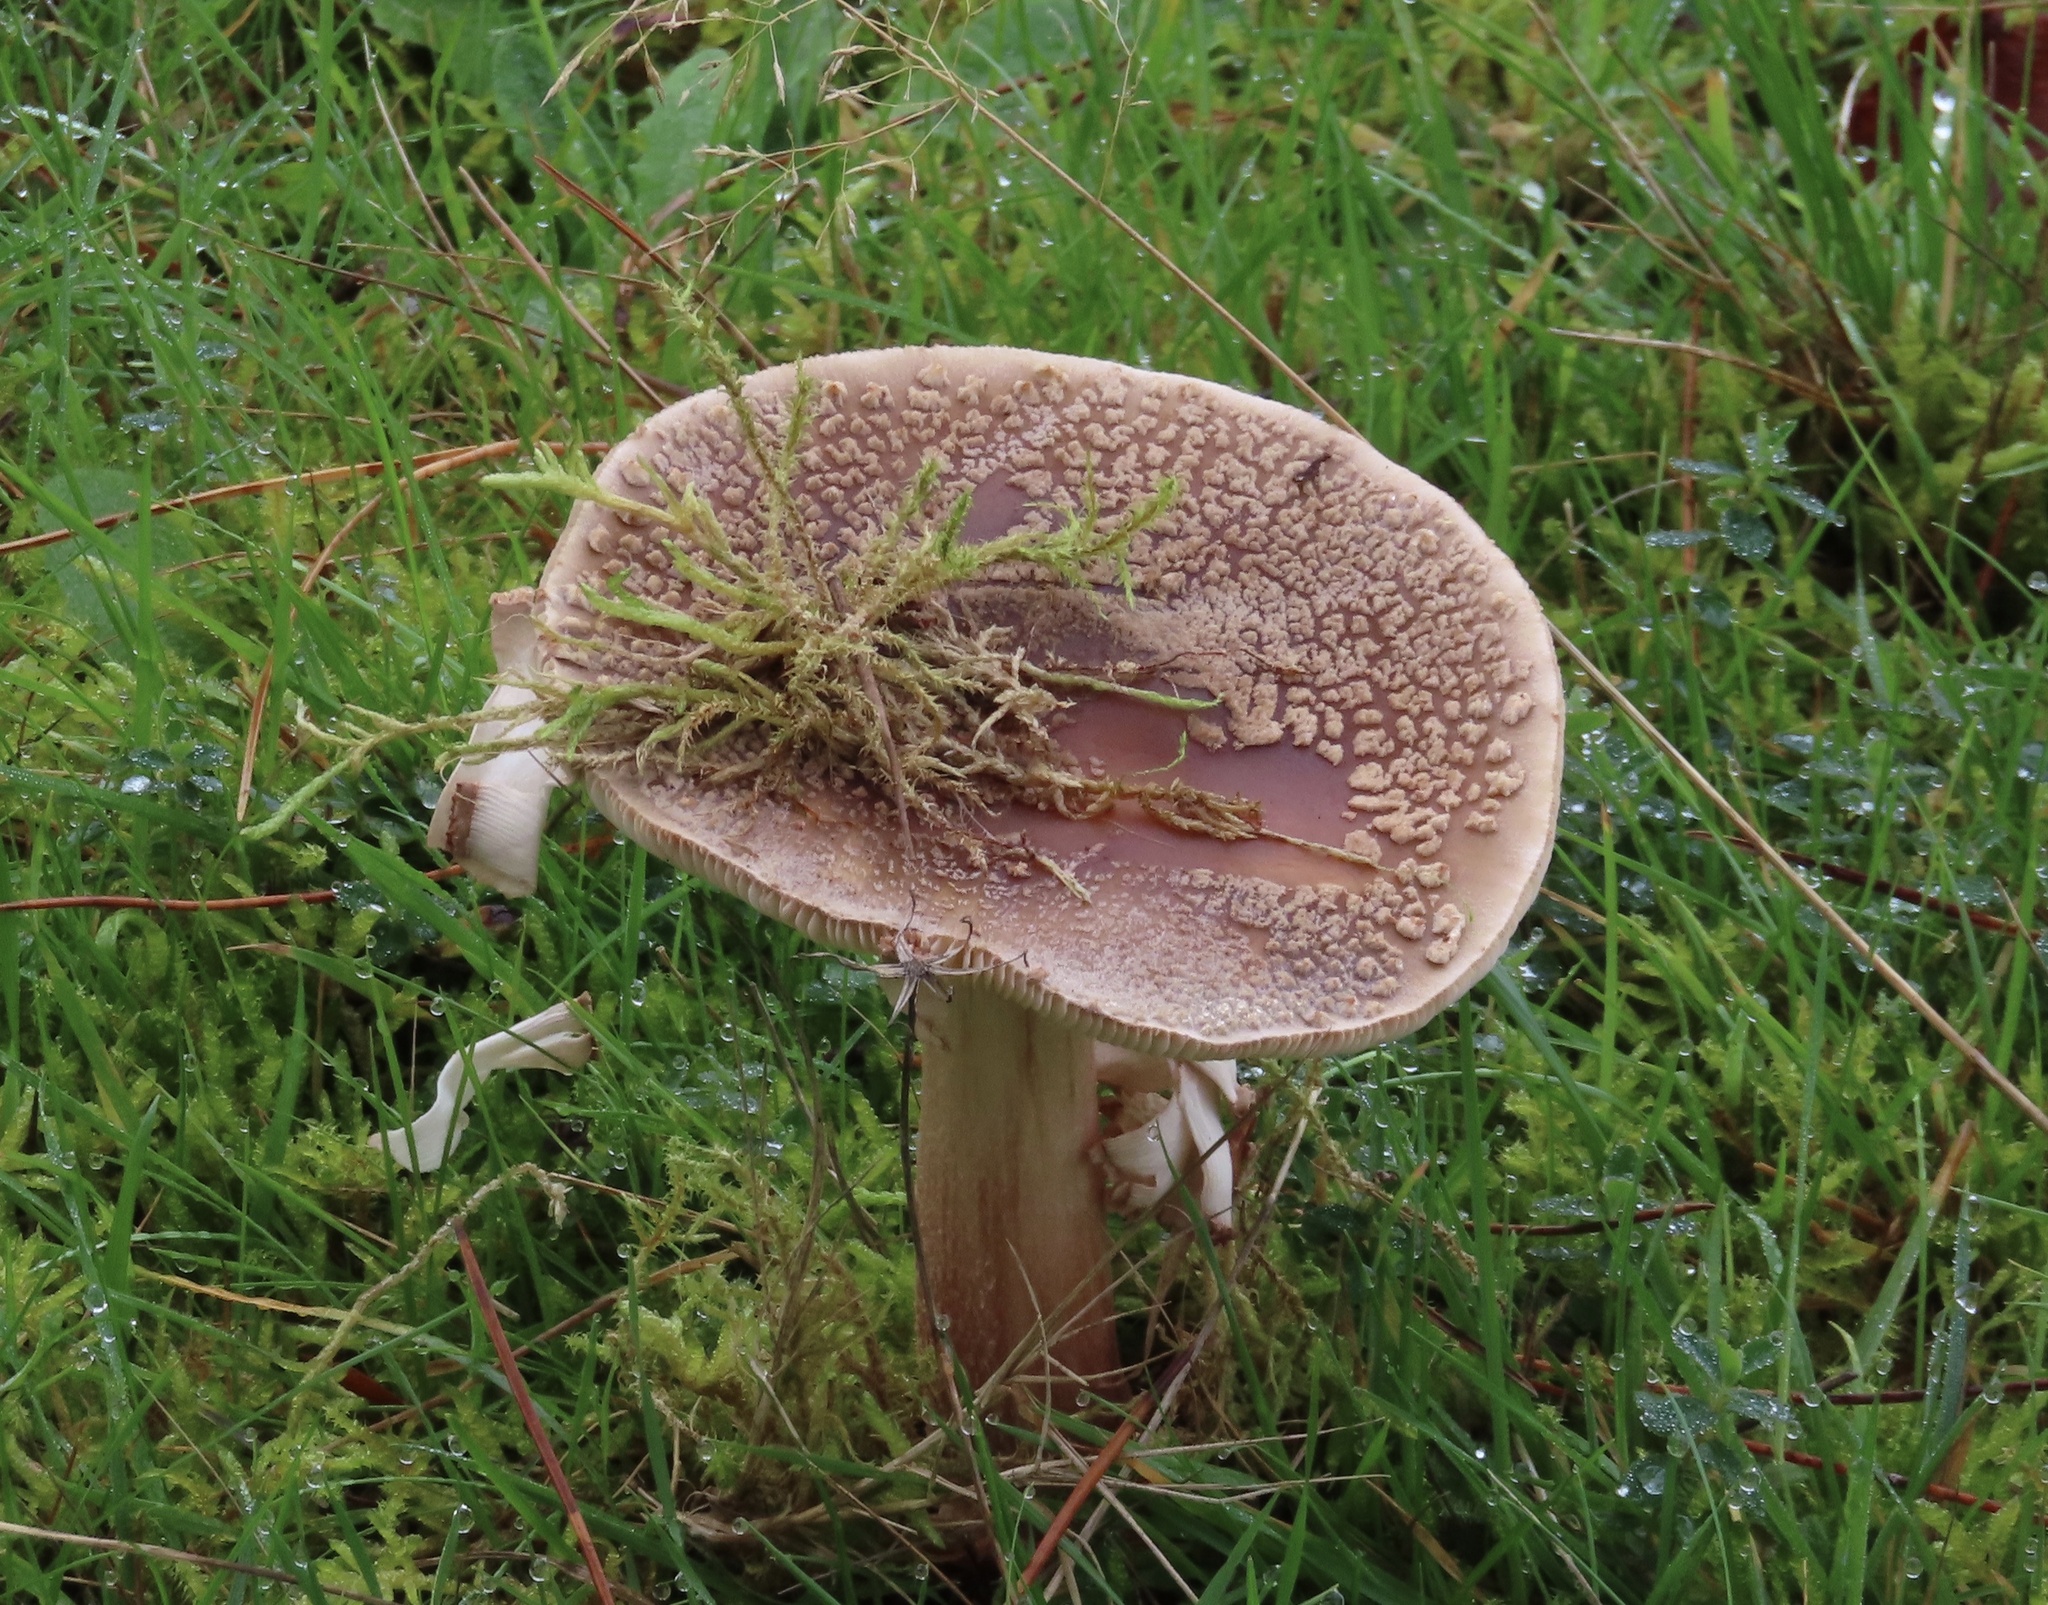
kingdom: Fungi
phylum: Basidiomycota
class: Agaricomycetes
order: Agaricales
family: Amanitaceae
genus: Amanita
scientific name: Amanita rubescens
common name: Blusher
